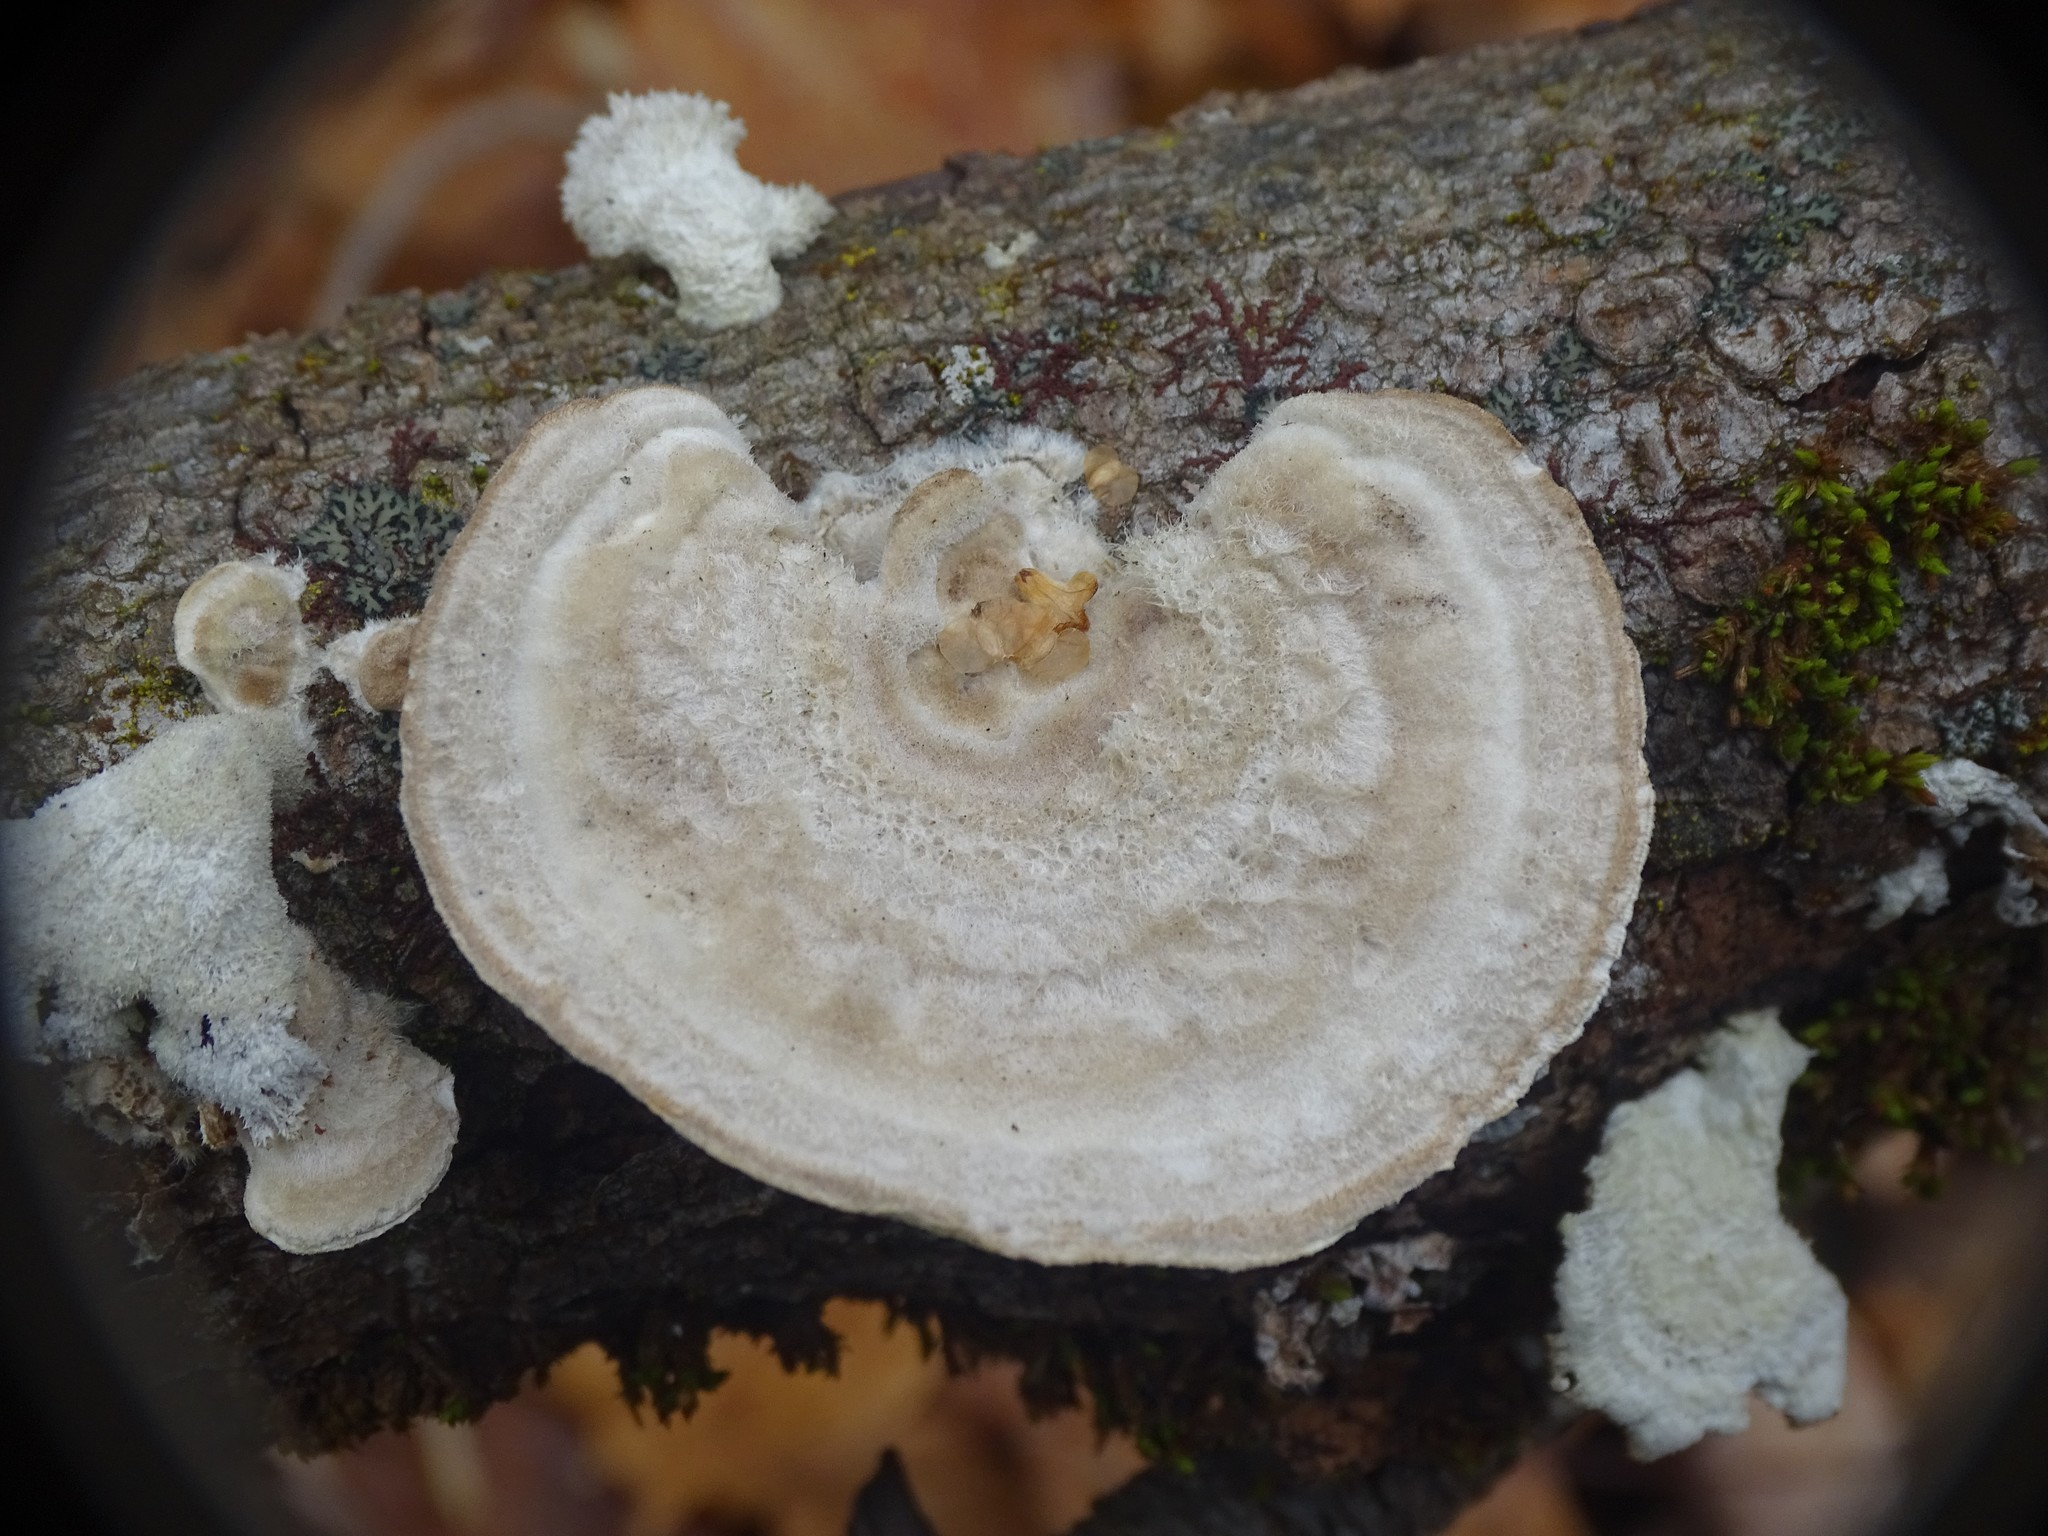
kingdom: Fungi
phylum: Basidiomycota
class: Agaricomycetes
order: Polyporales
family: Polyporaceae
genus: Trametes
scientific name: Trametes hirsuta
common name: Hairy bracket
